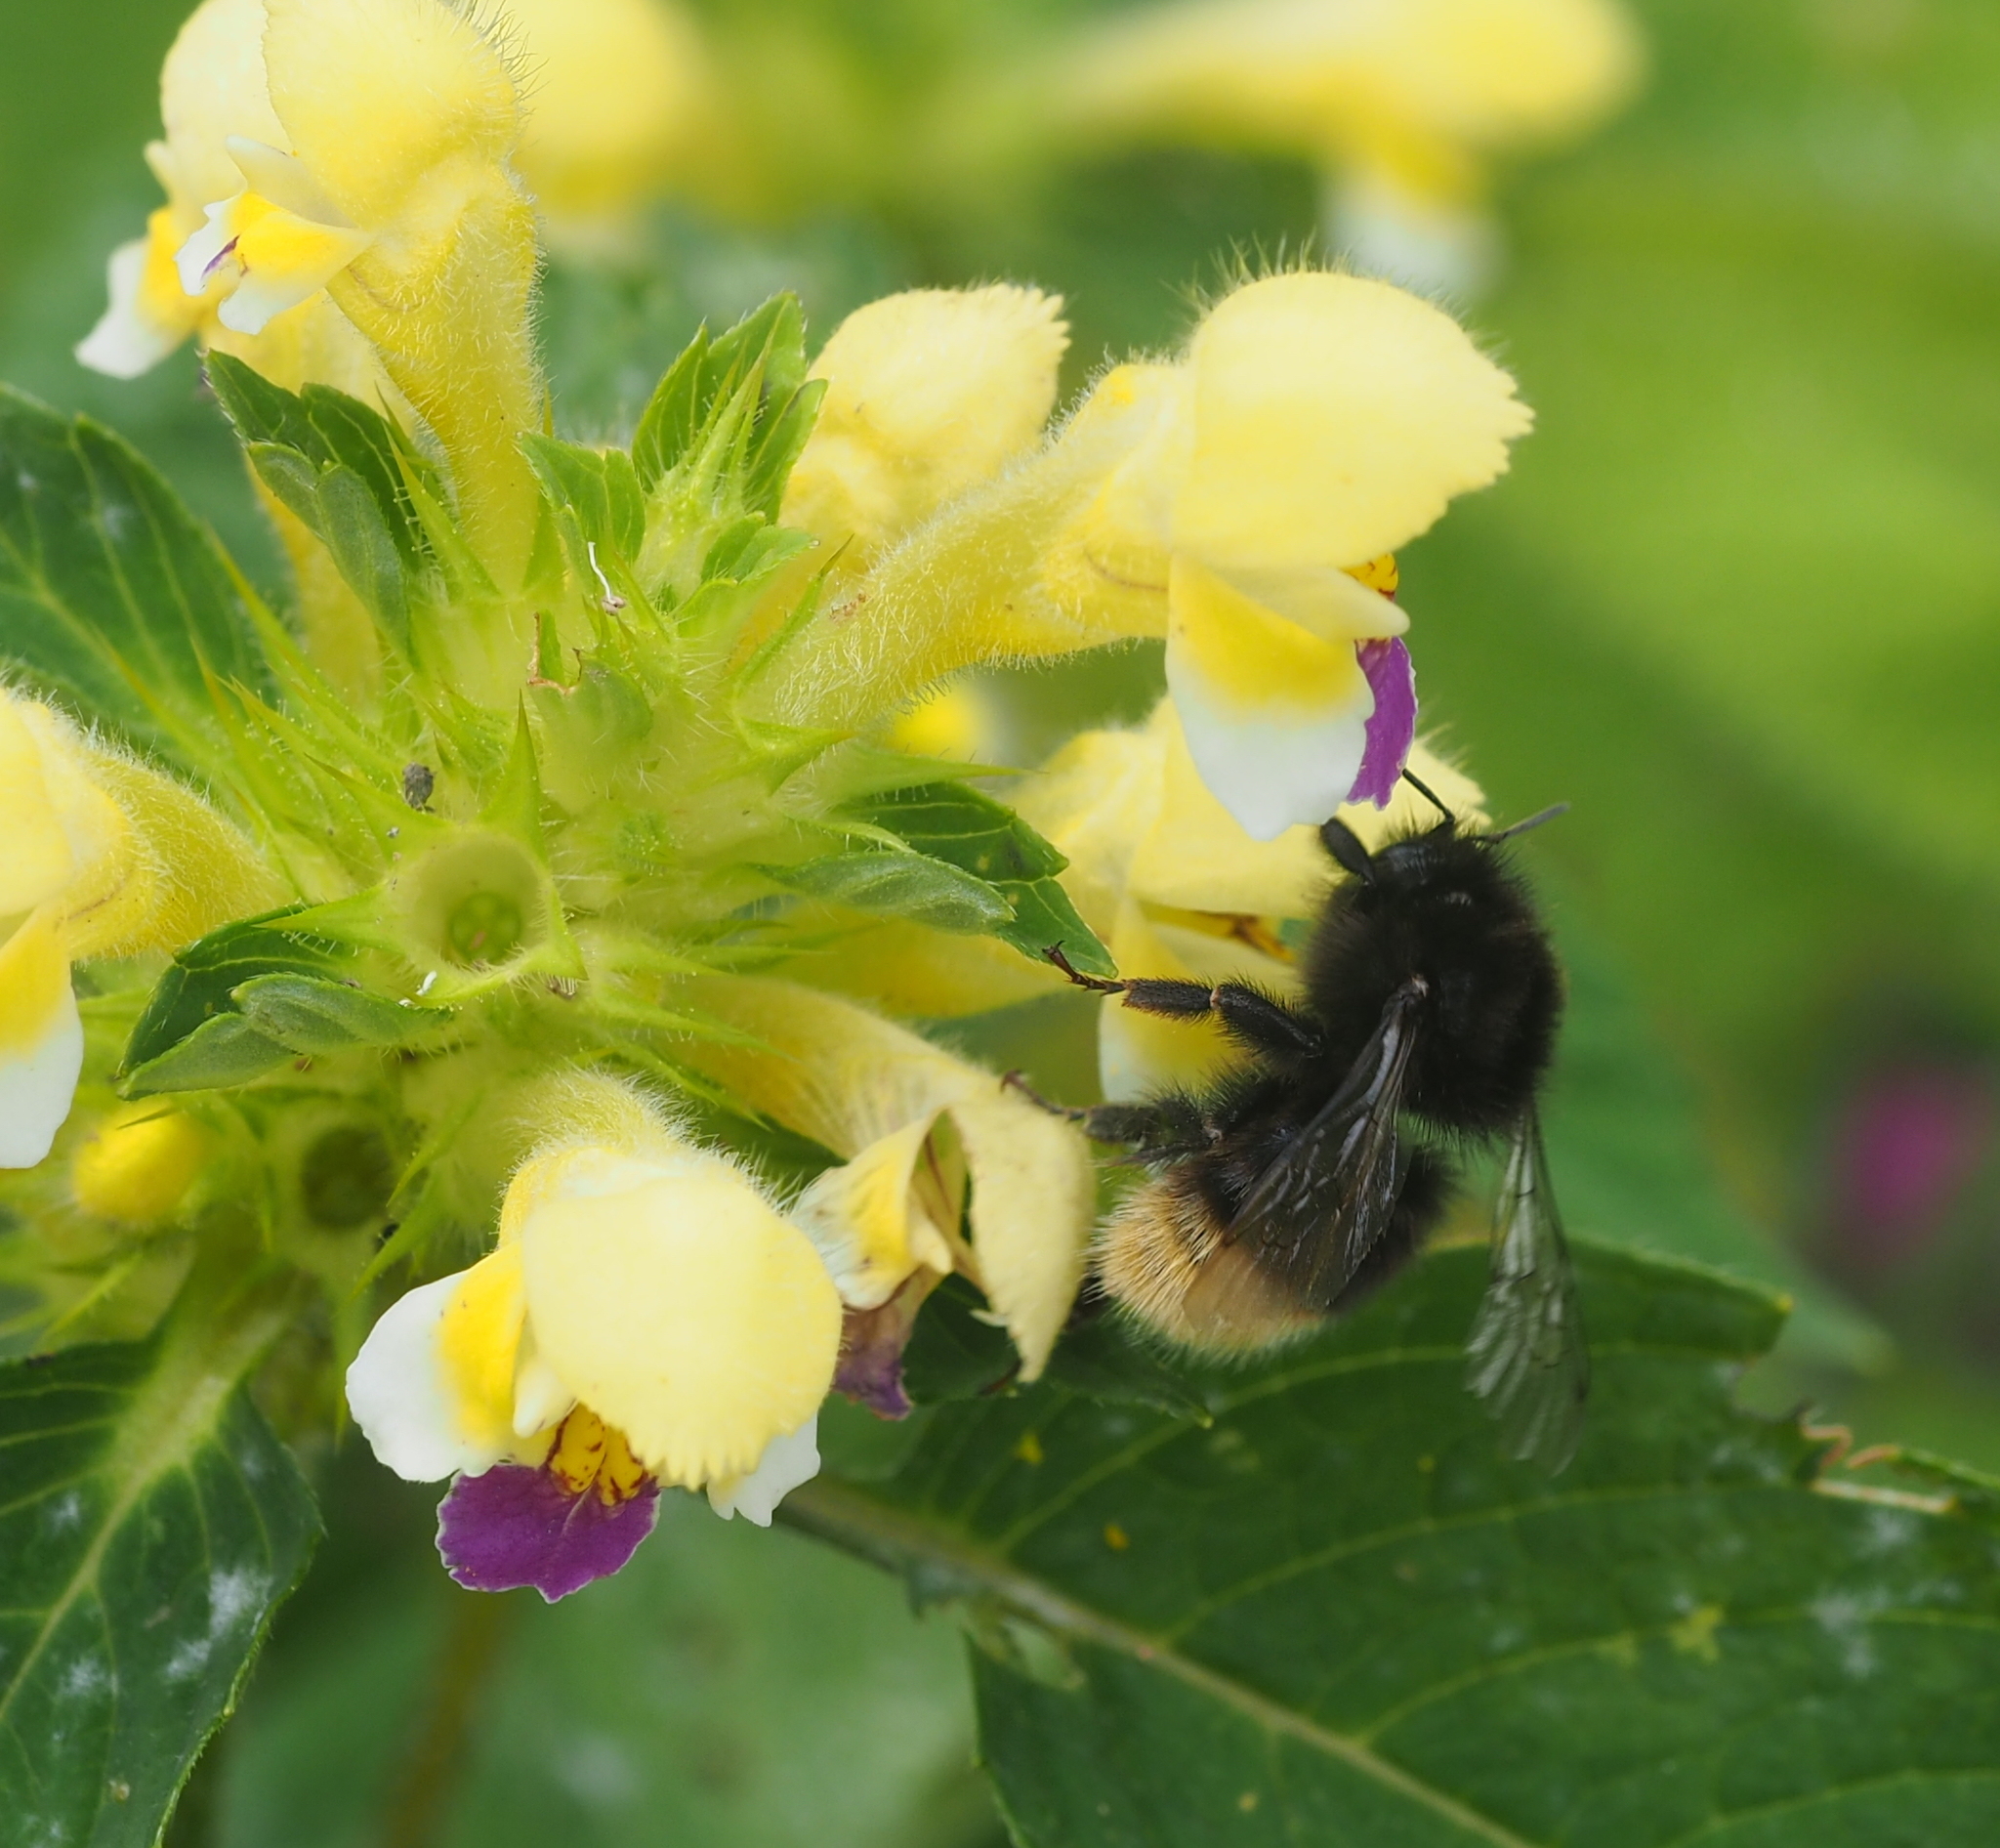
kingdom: Animalia
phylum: Arthropoda
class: Insecta
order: Hymenoptera
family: Apidae
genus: Bombus
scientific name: Bombus wurflenii
